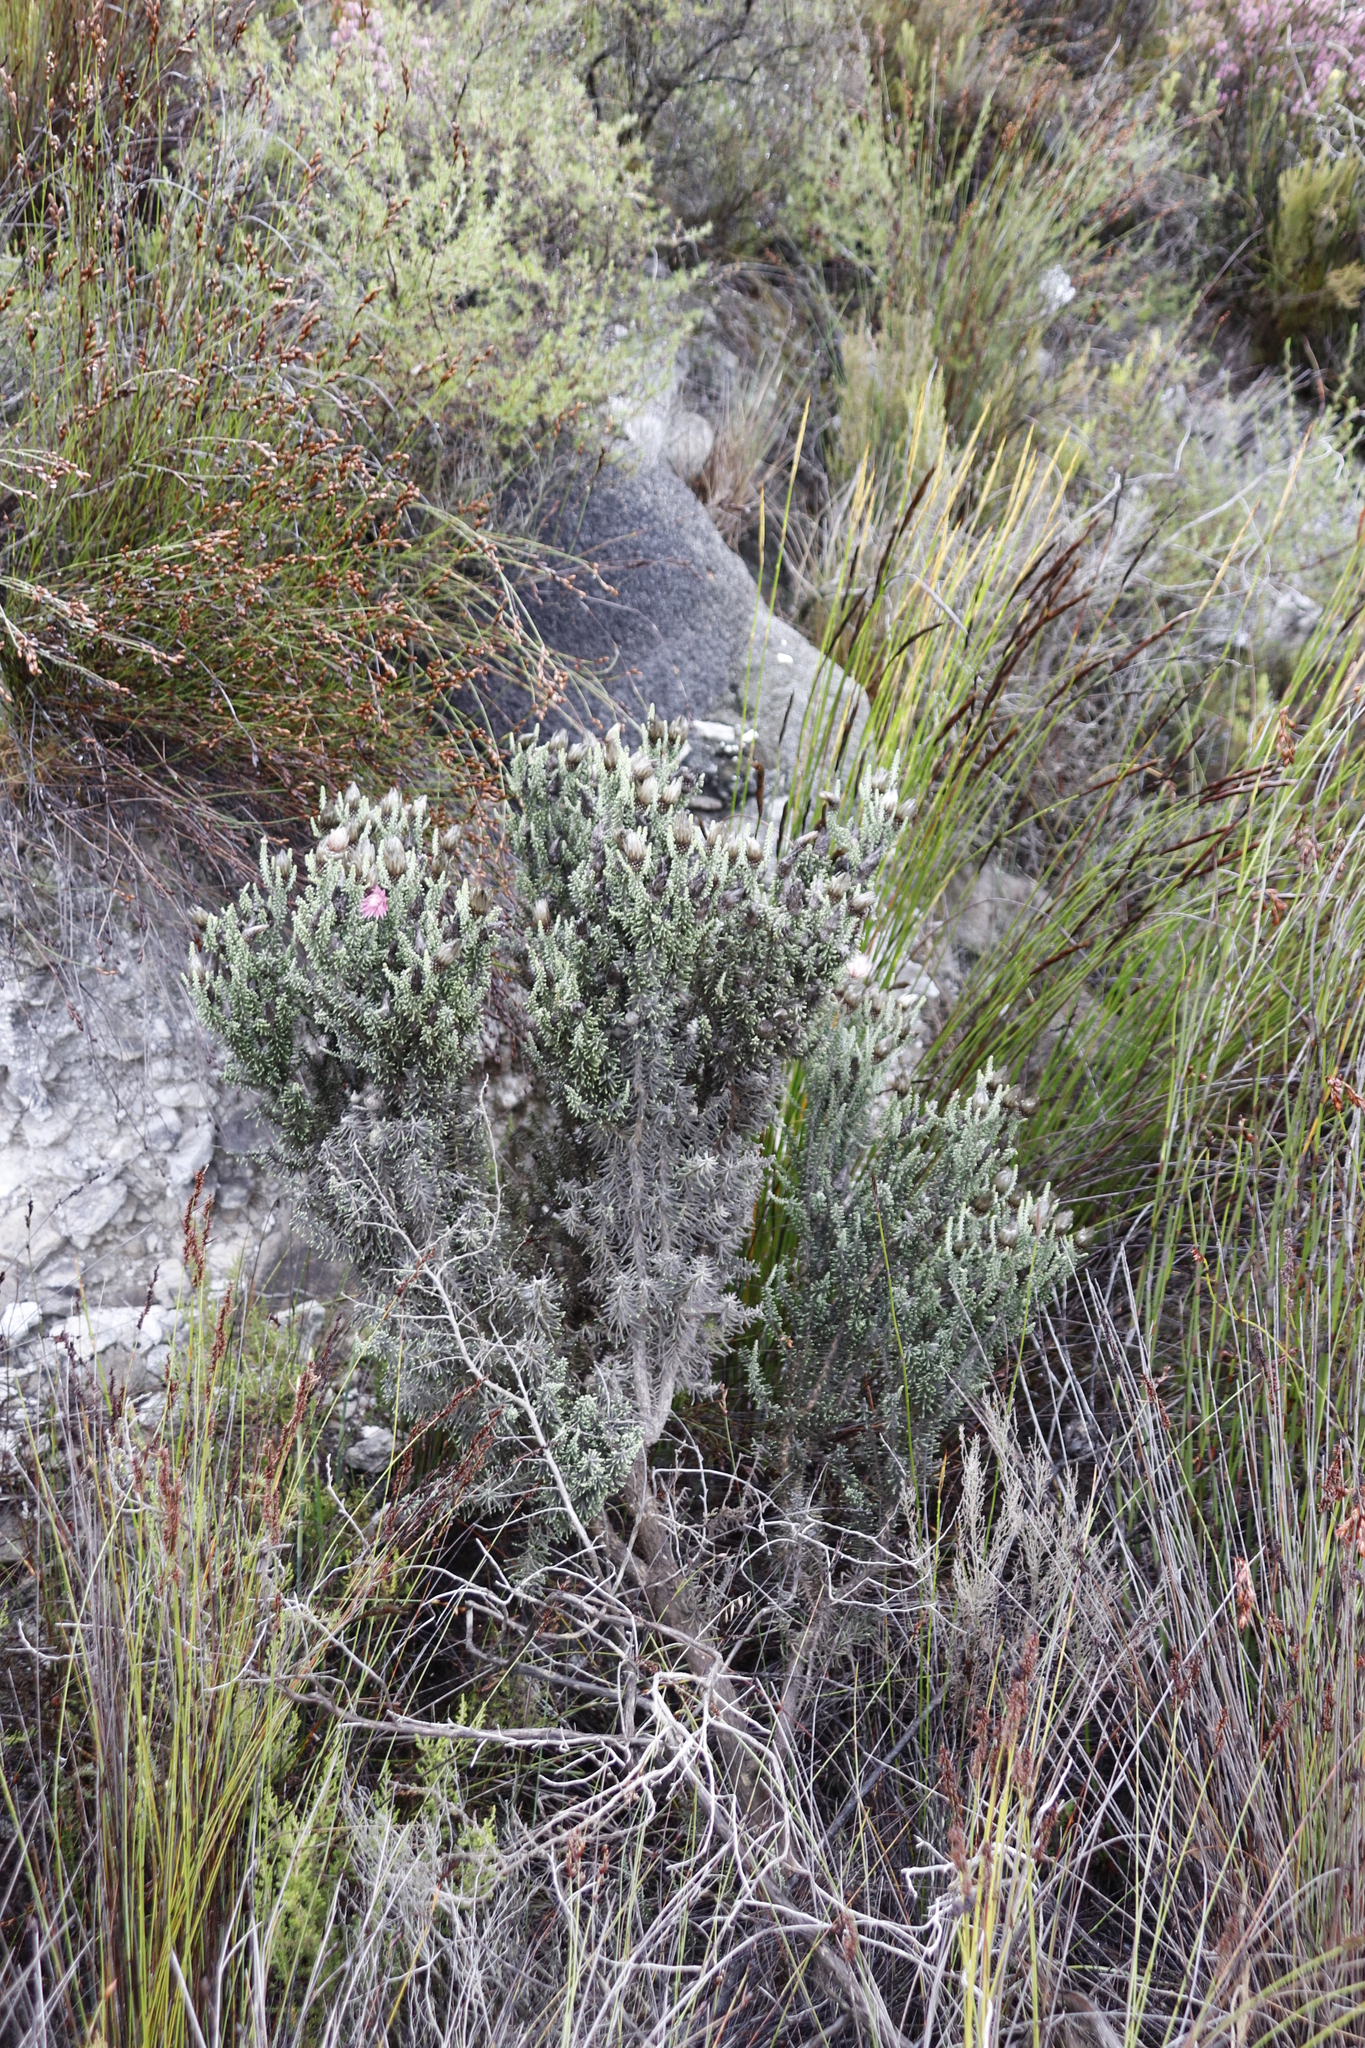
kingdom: Plantae
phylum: Tracheophyta
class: Magnoliopsida
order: Asterales
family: Asteraceae
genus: Phaenocoma
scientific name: Phaenocoma prolifera
